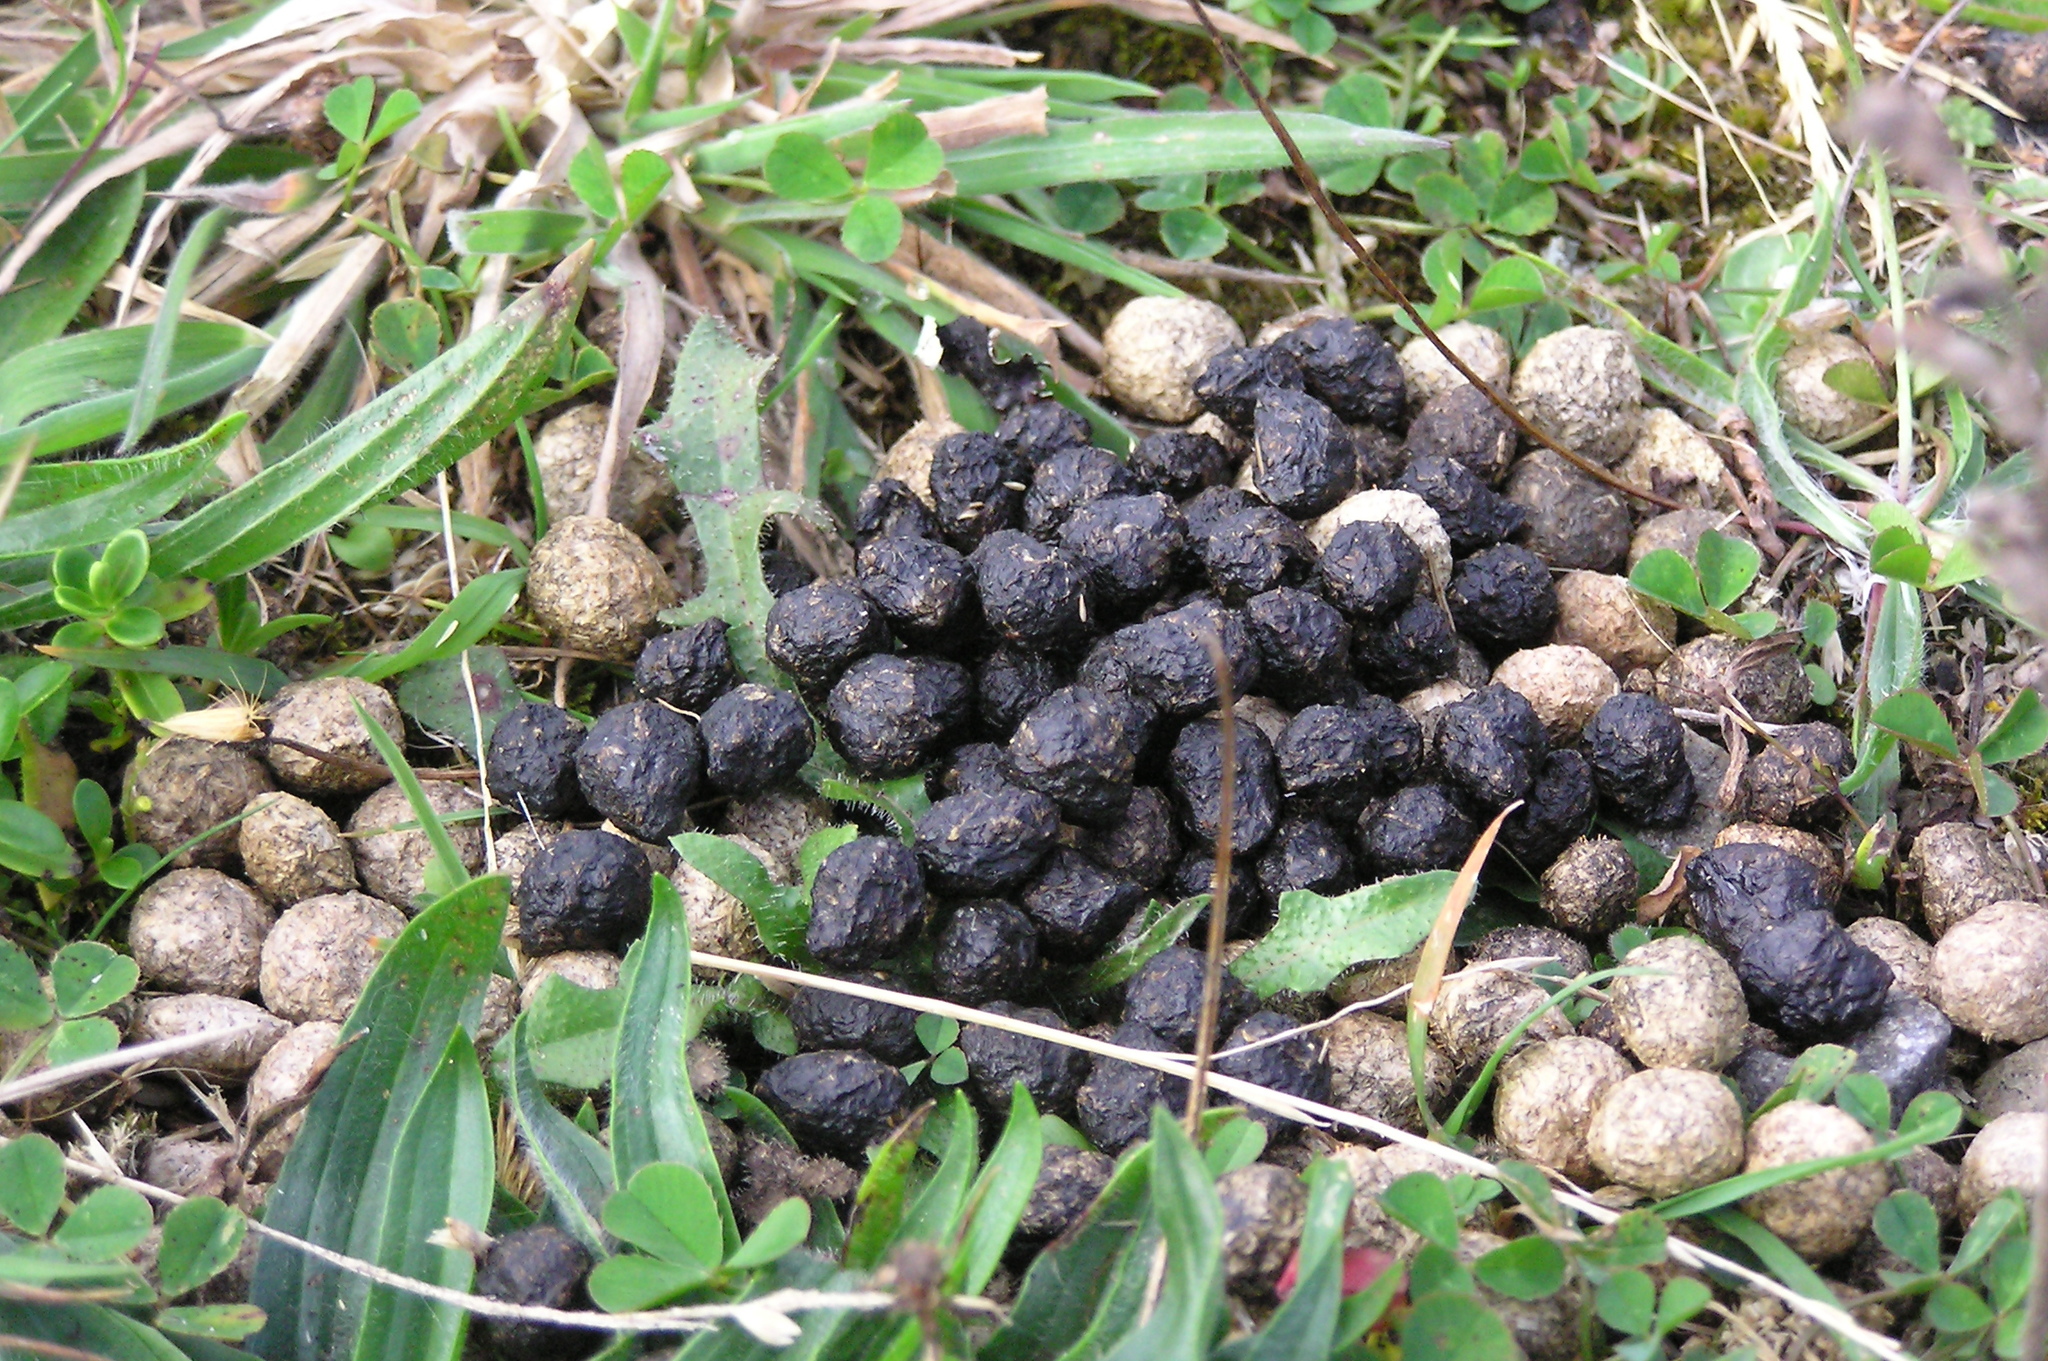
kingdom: Animalia
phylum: Chordata
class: Mammalia
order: Lagomorpha
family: Leporidae
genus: Oryctolagus
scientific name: Oryctolagus cuniculus
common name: European rabbit
